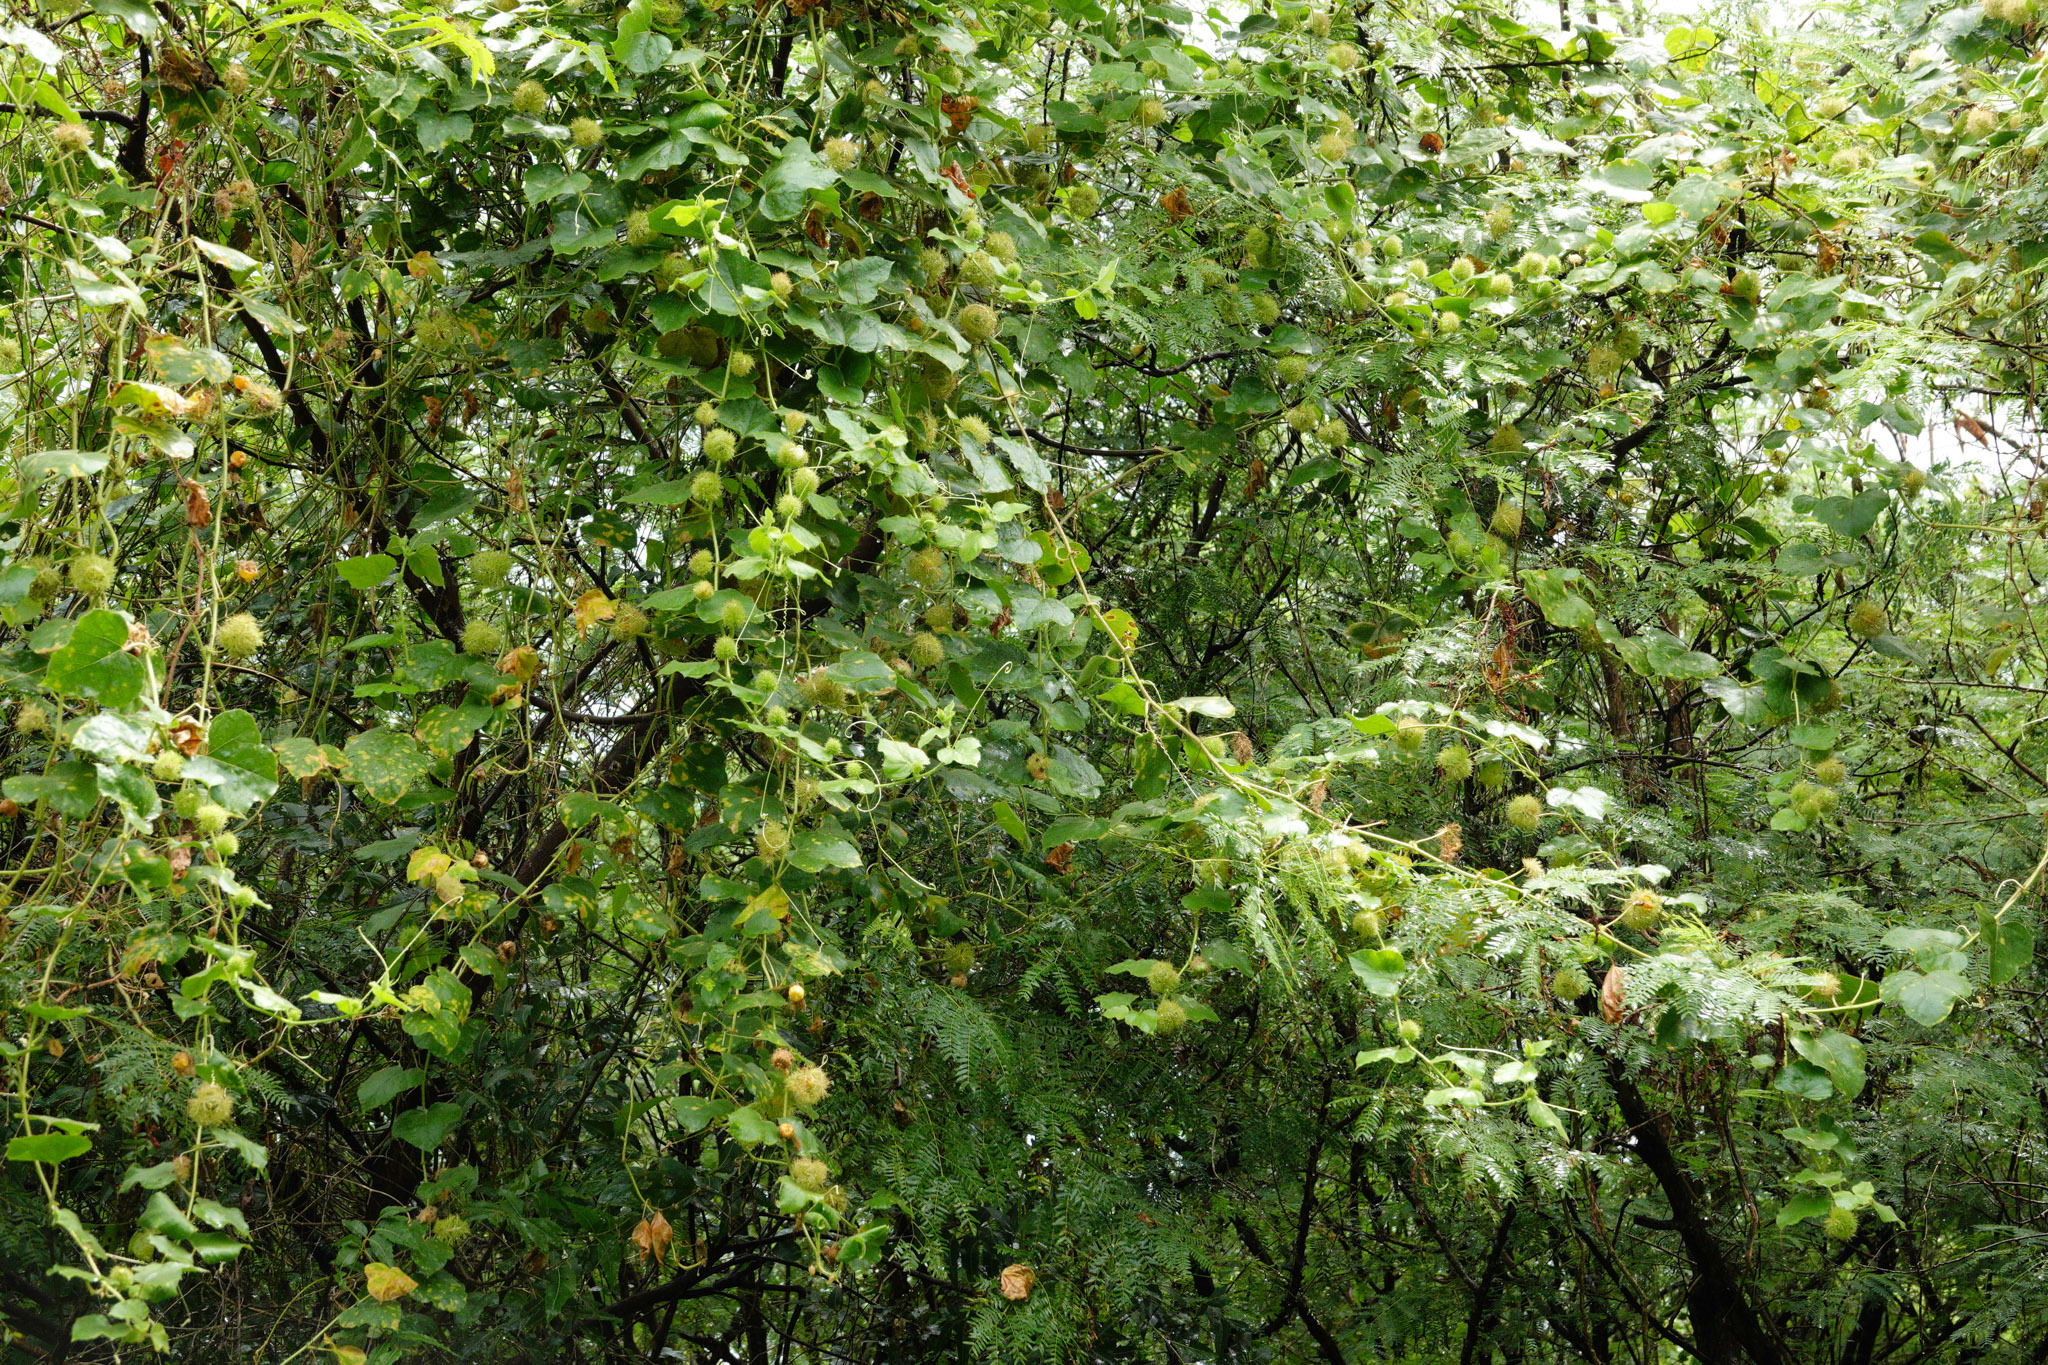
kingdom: Plantae
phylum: Tracheophyta
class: Magnoliopsida
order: Malpighiales
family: Passifloraceae
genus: Passiflora
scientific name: Passiflora foetida
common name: Fetid passionflower
